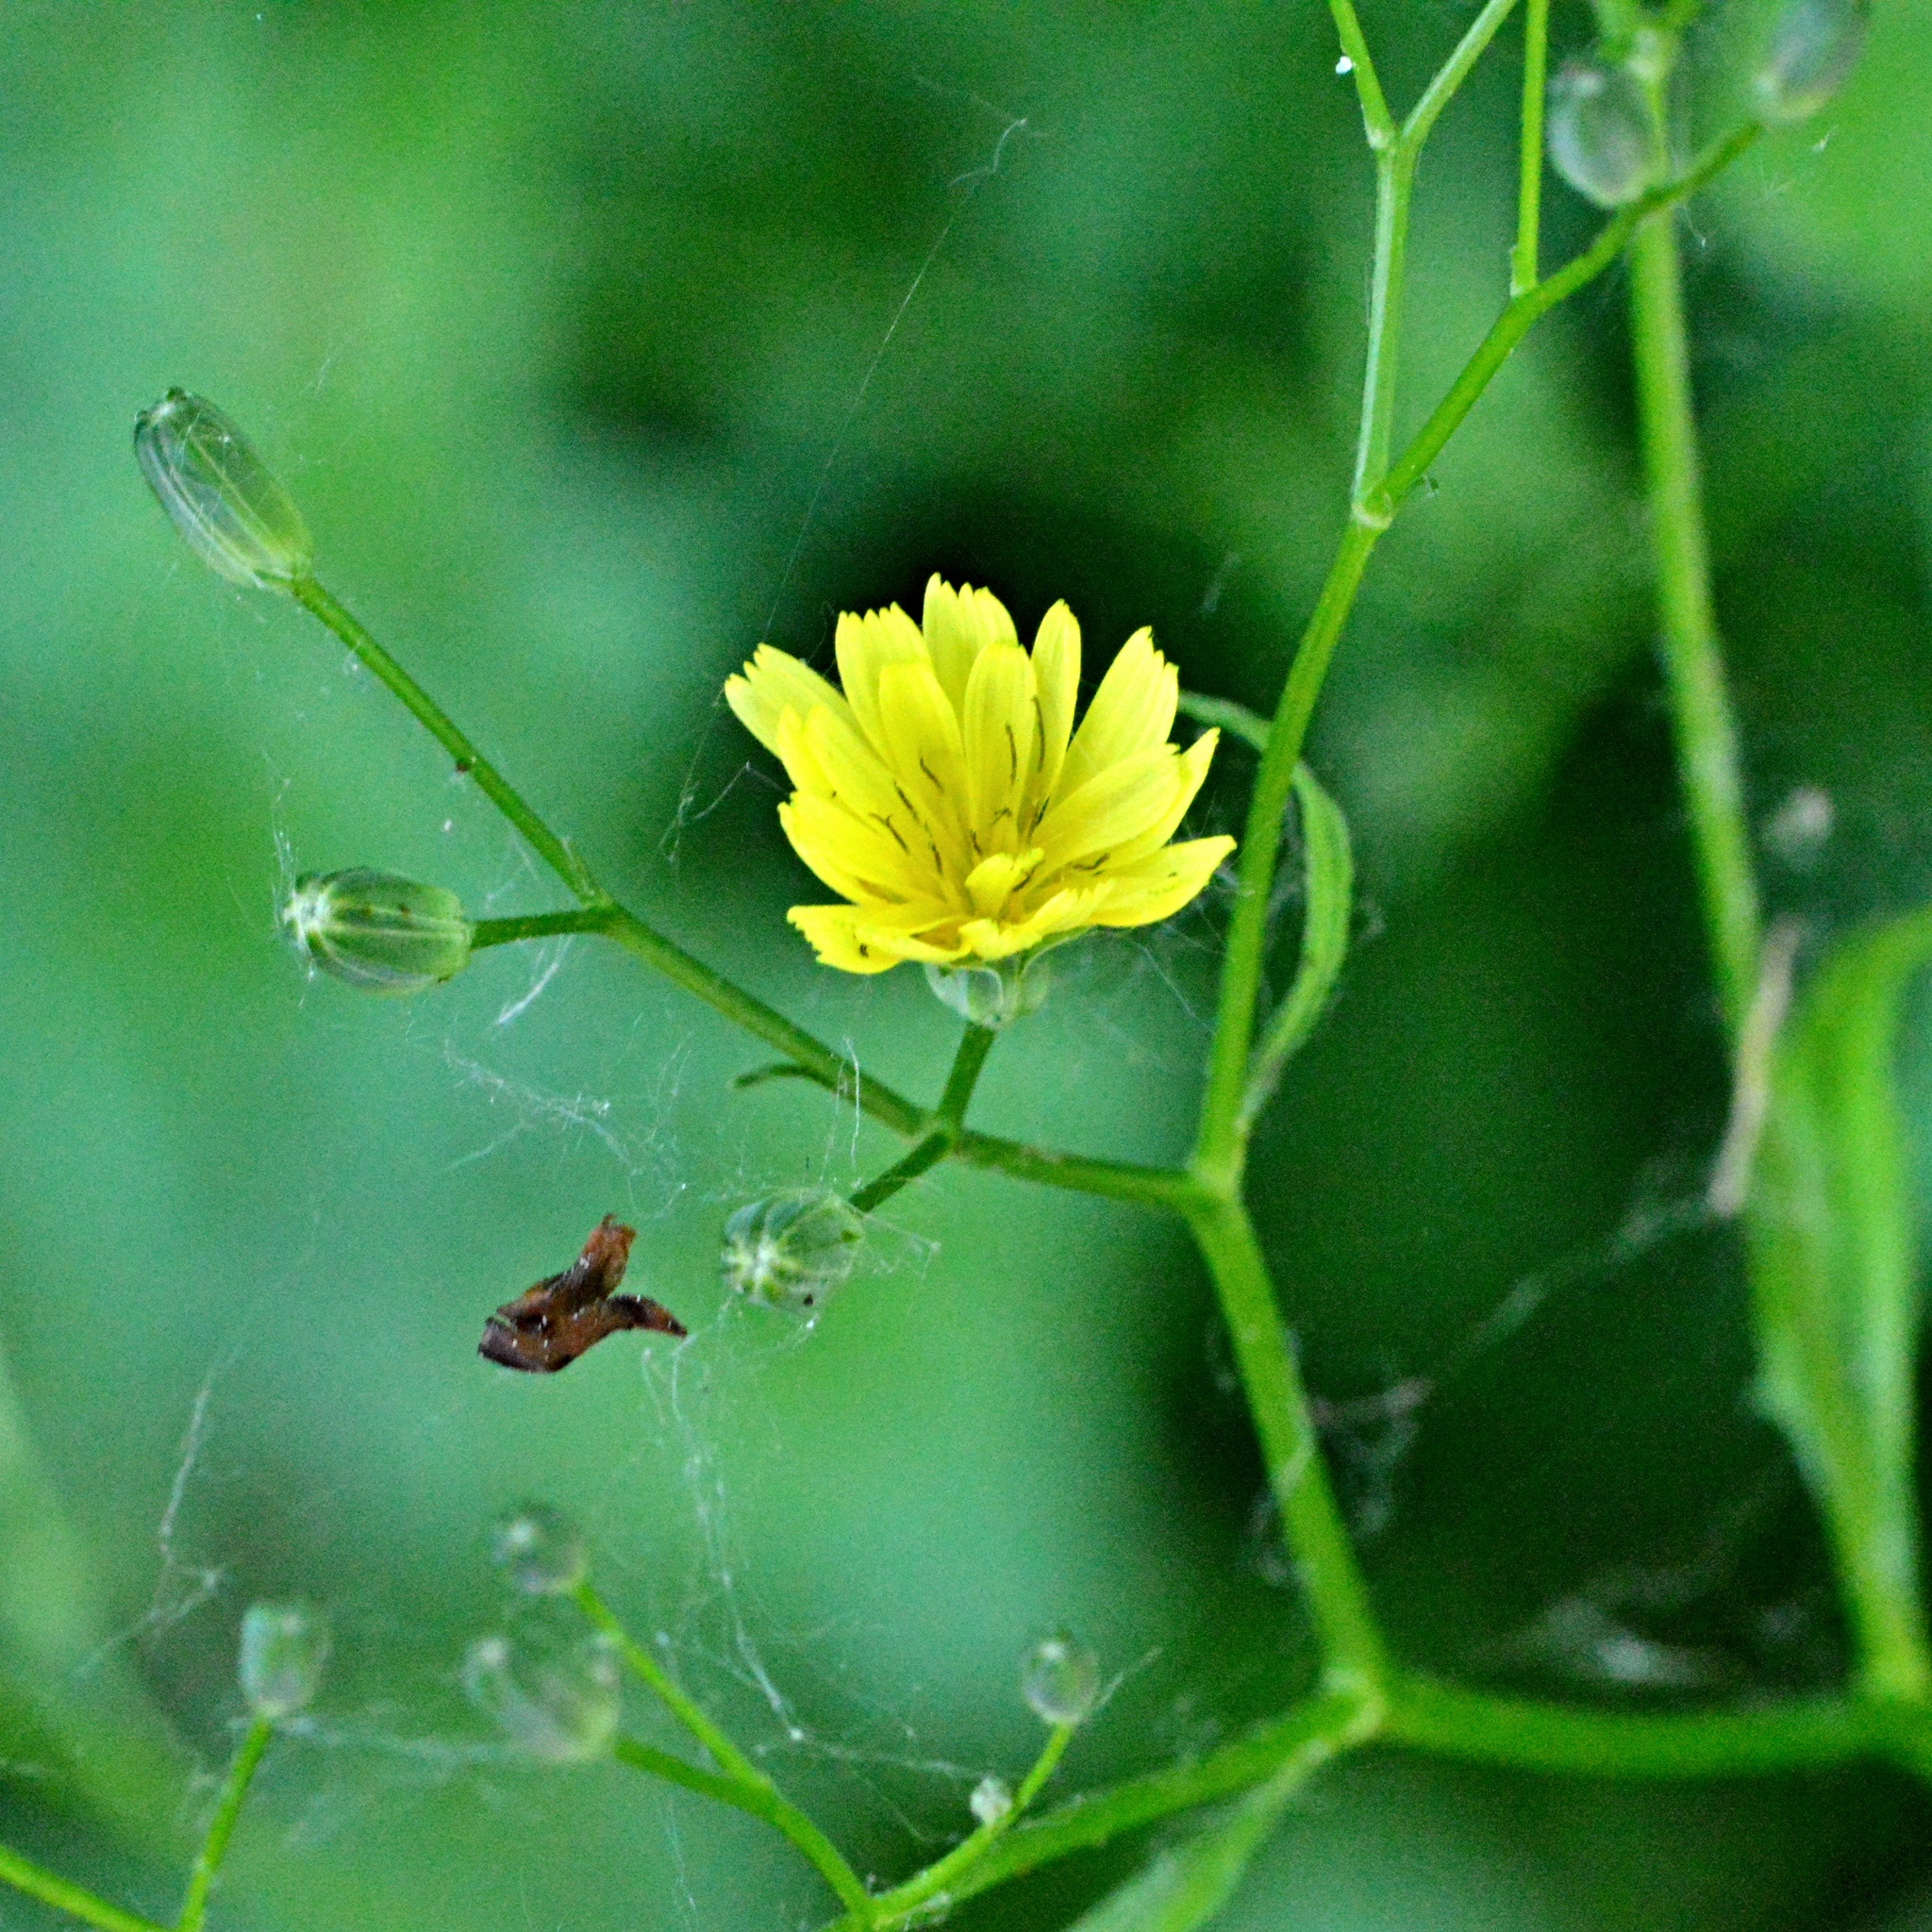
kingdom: Plantae
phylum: Tracheophyta
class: Magnoliopsida
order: Asterales
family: Asteraceae
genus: Lapsana
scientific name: Lapsana communis
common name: Nipplewort
